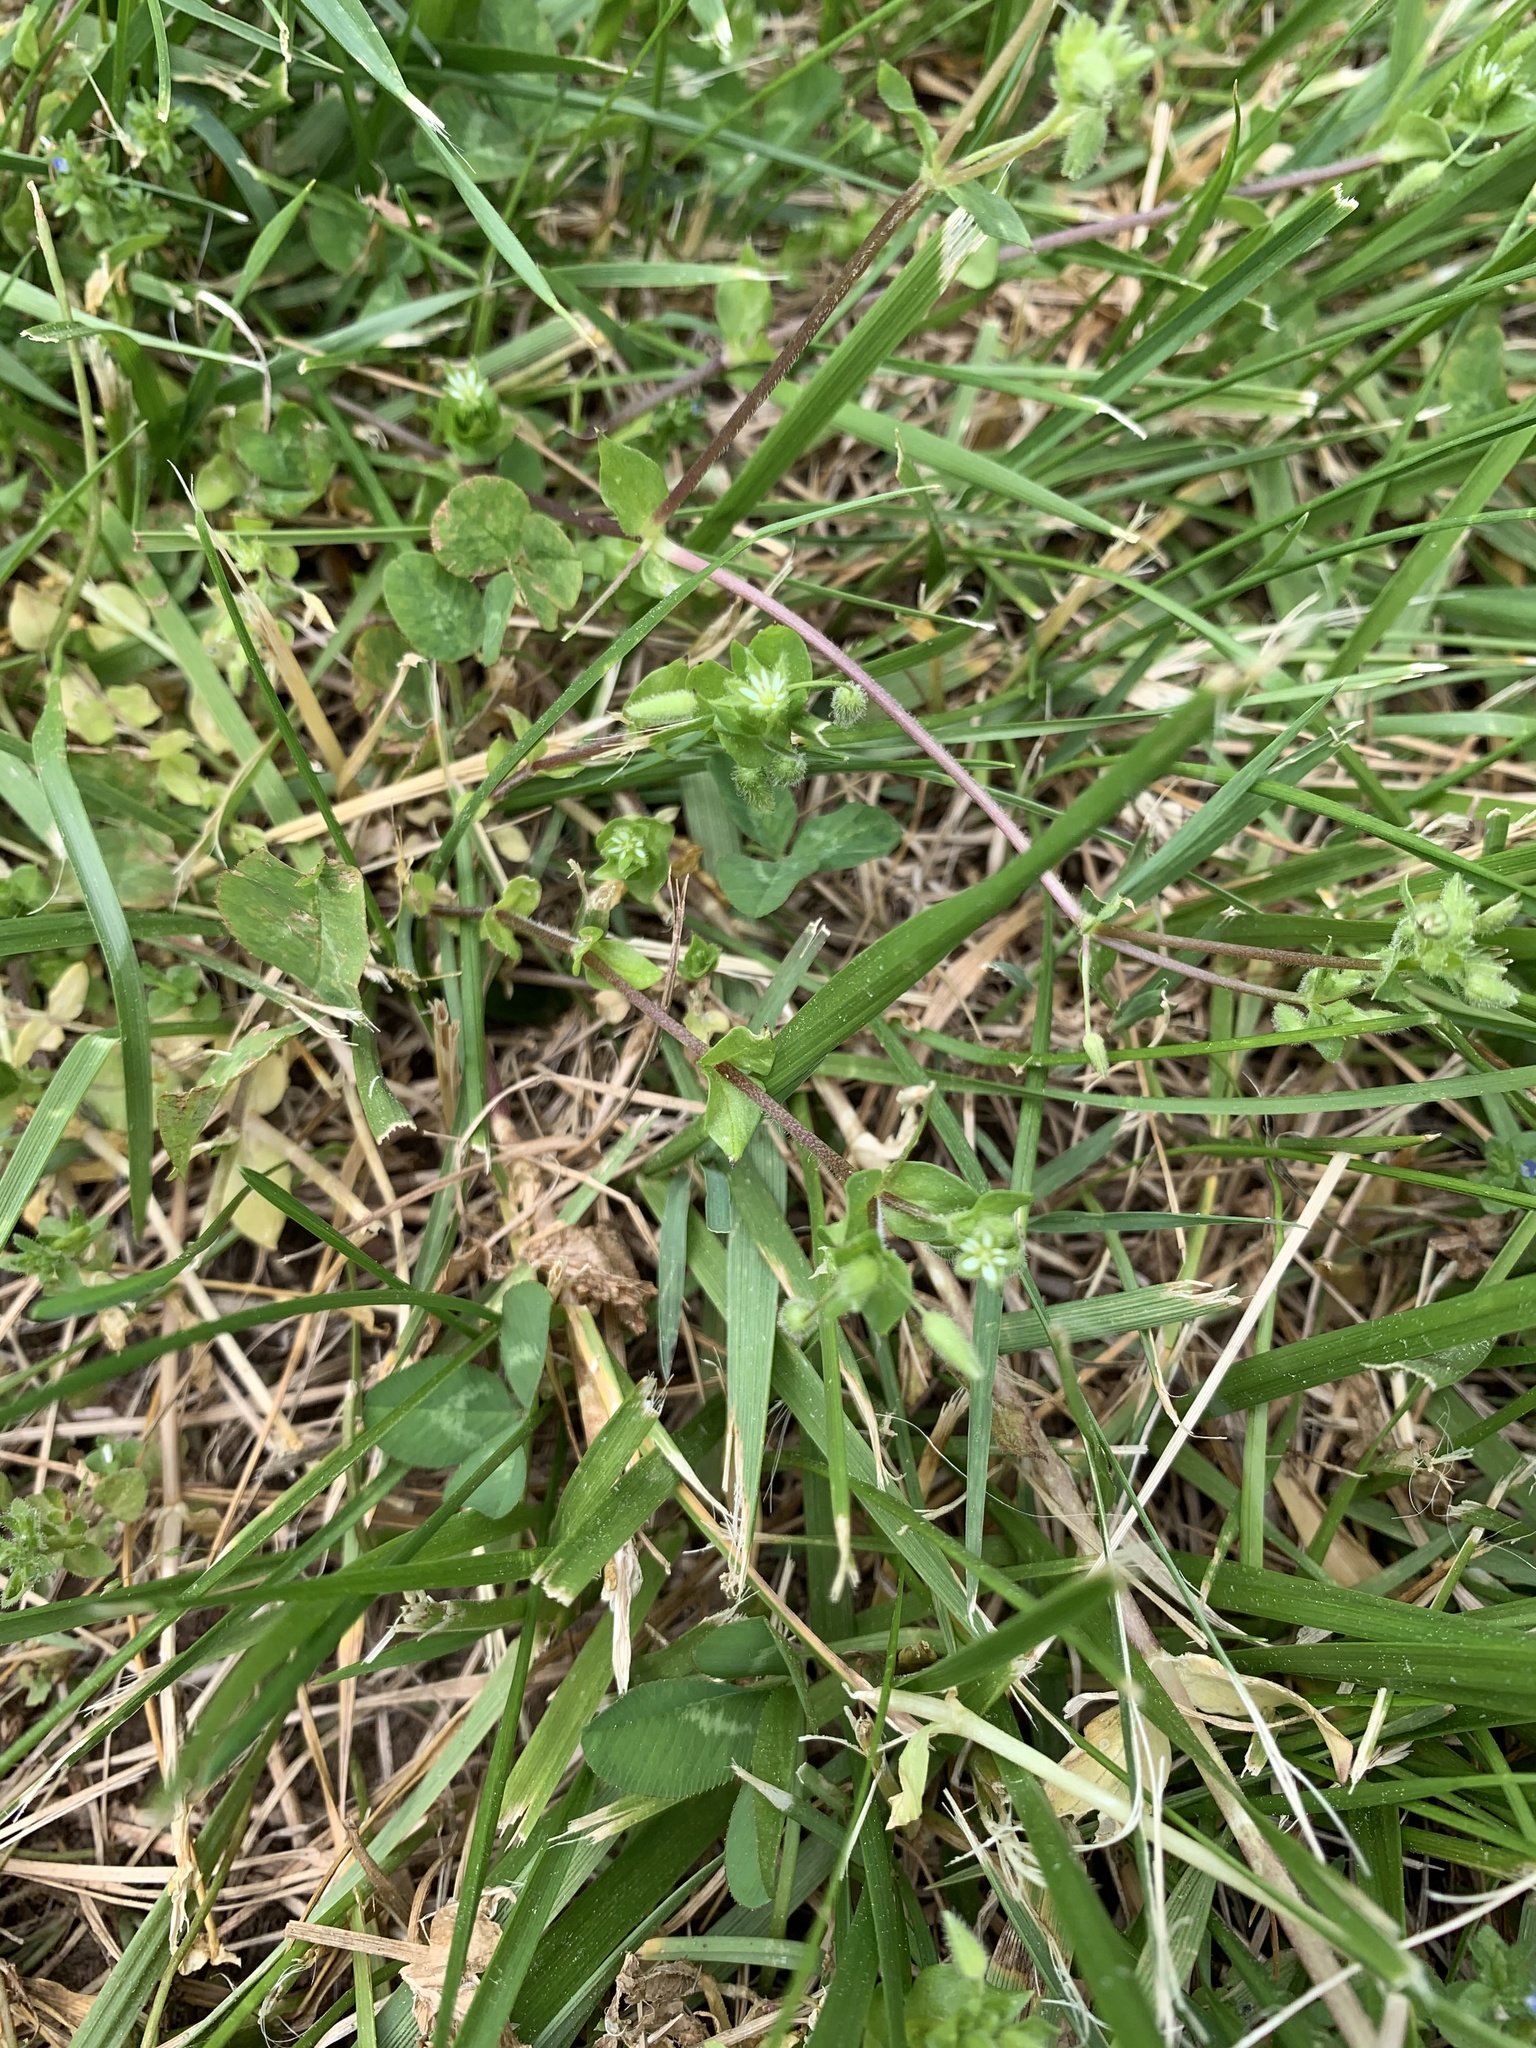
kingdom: Plantae
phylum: Tracheophyta
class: Magnoliopsida
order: Caryophyllales
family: Caryophyllaceae
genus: Stellaria
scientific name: Stellaria media
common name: Common chickweed
